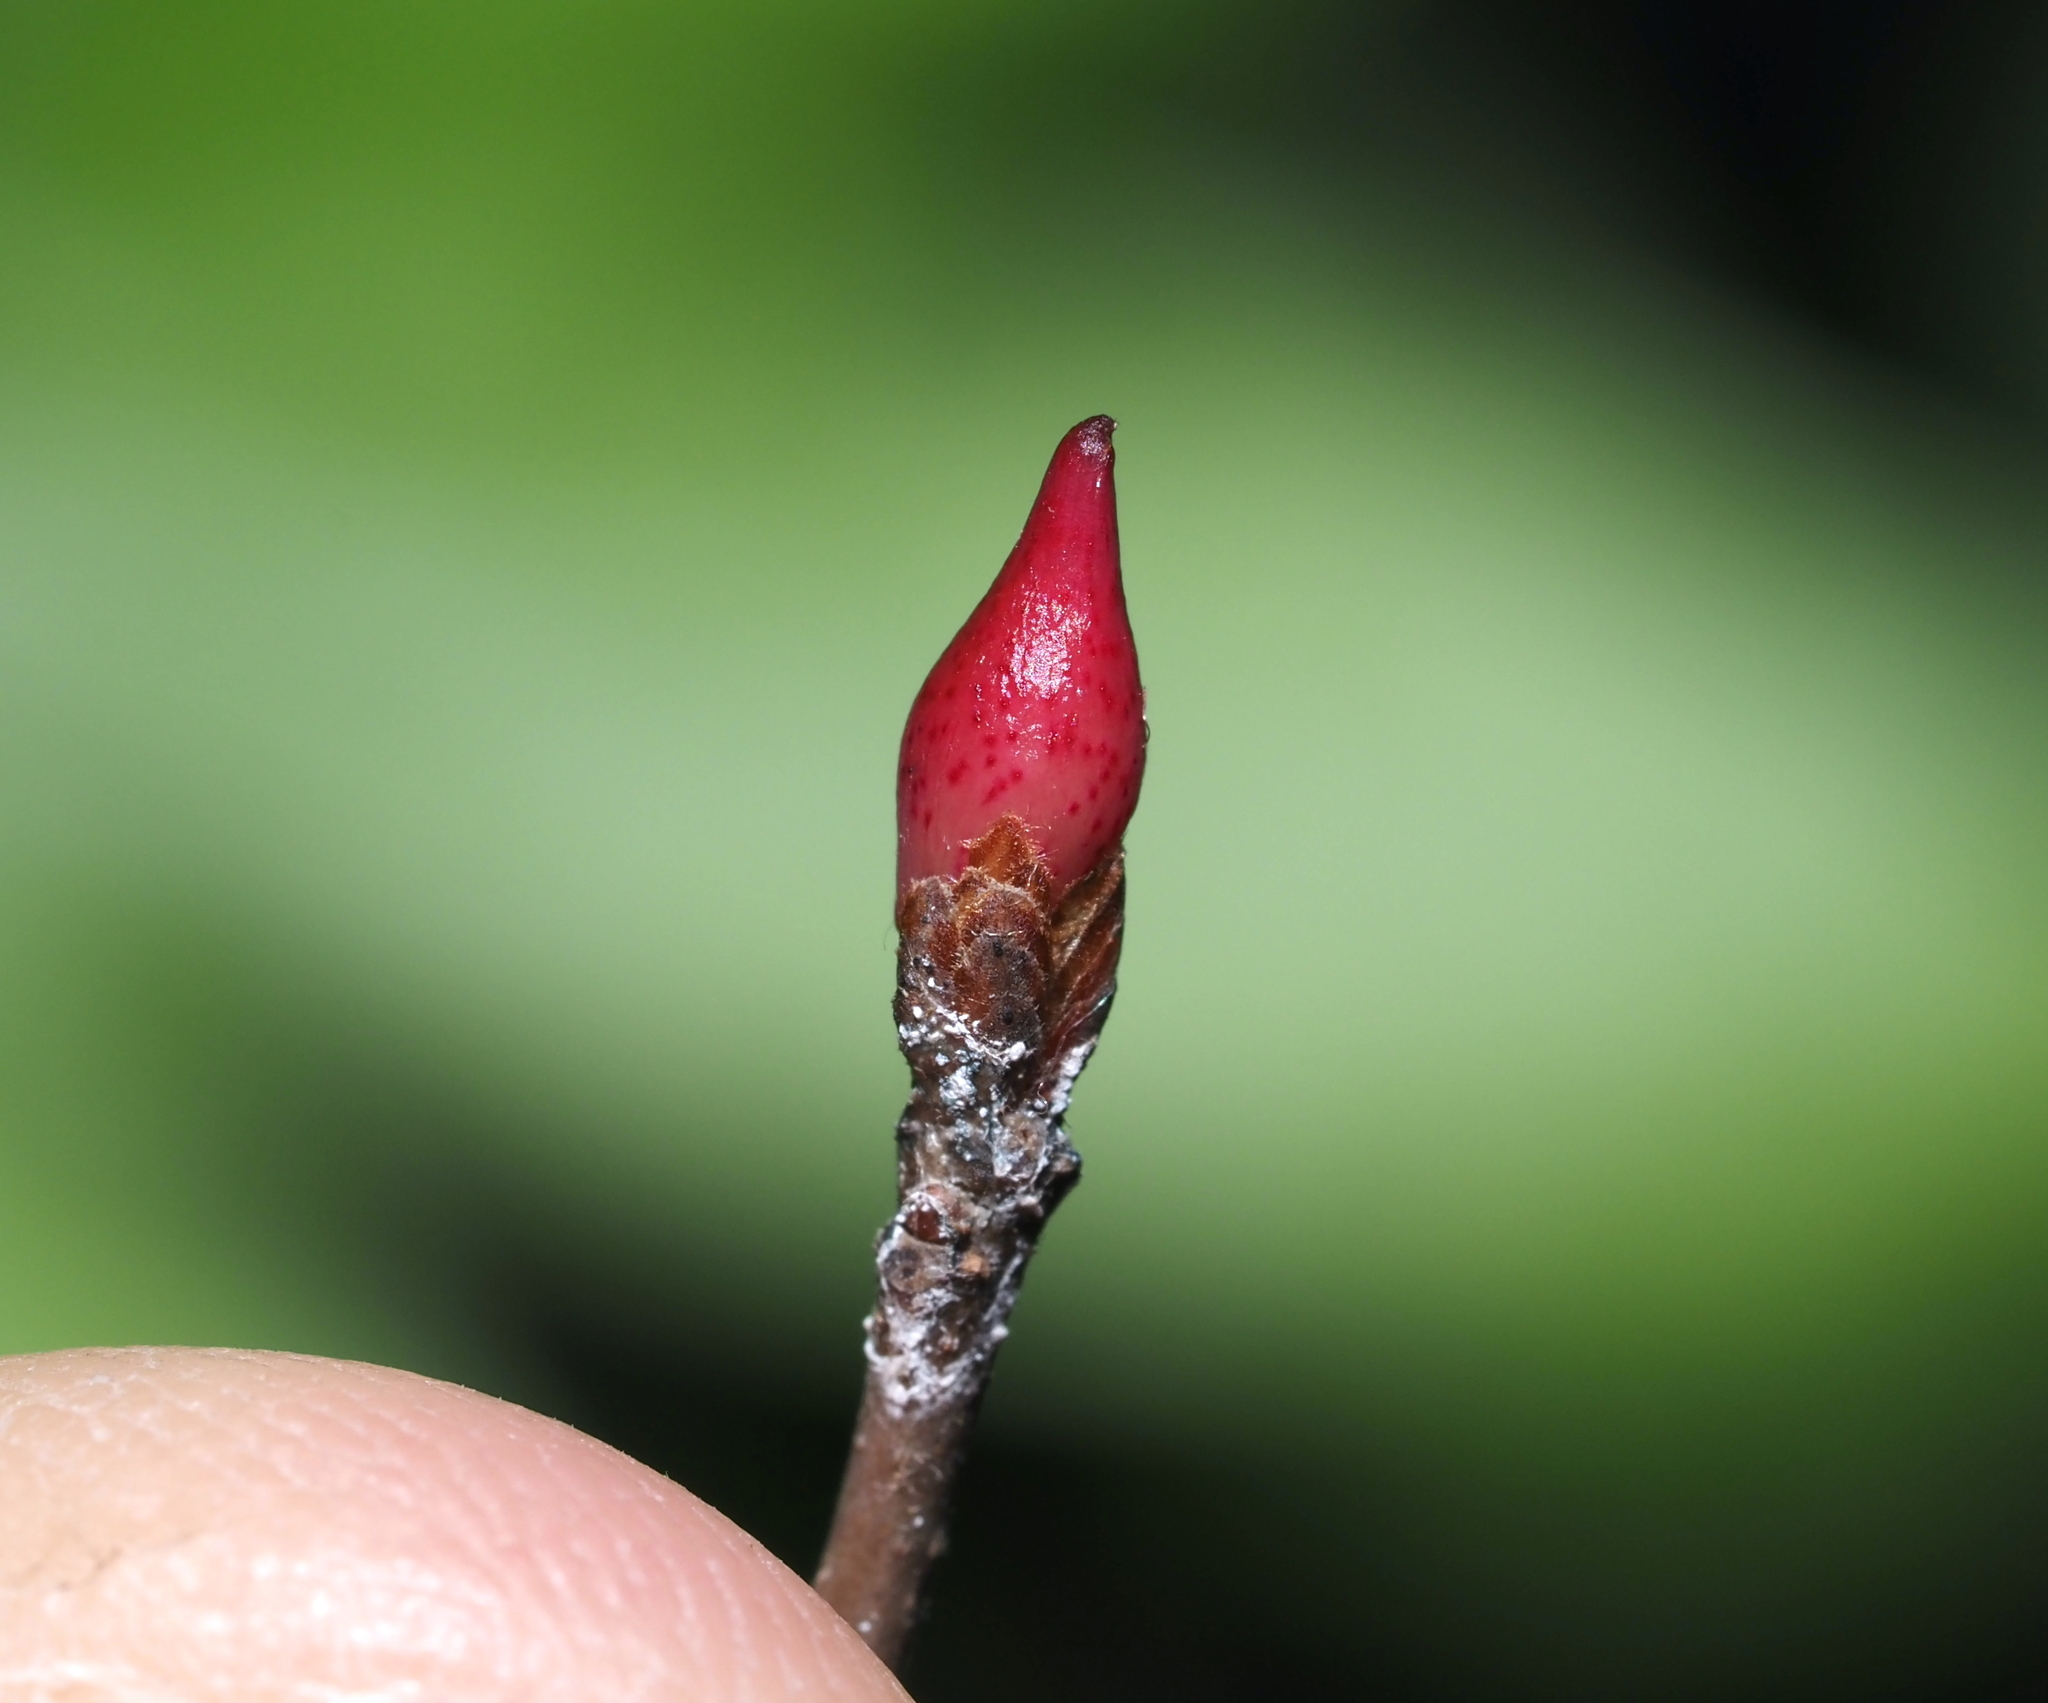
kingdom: Animalia
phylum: Arthropoda
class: Insecta
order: Hymenoptera
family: Cynipidae
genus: Amphibolips
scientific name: Amphibolips
